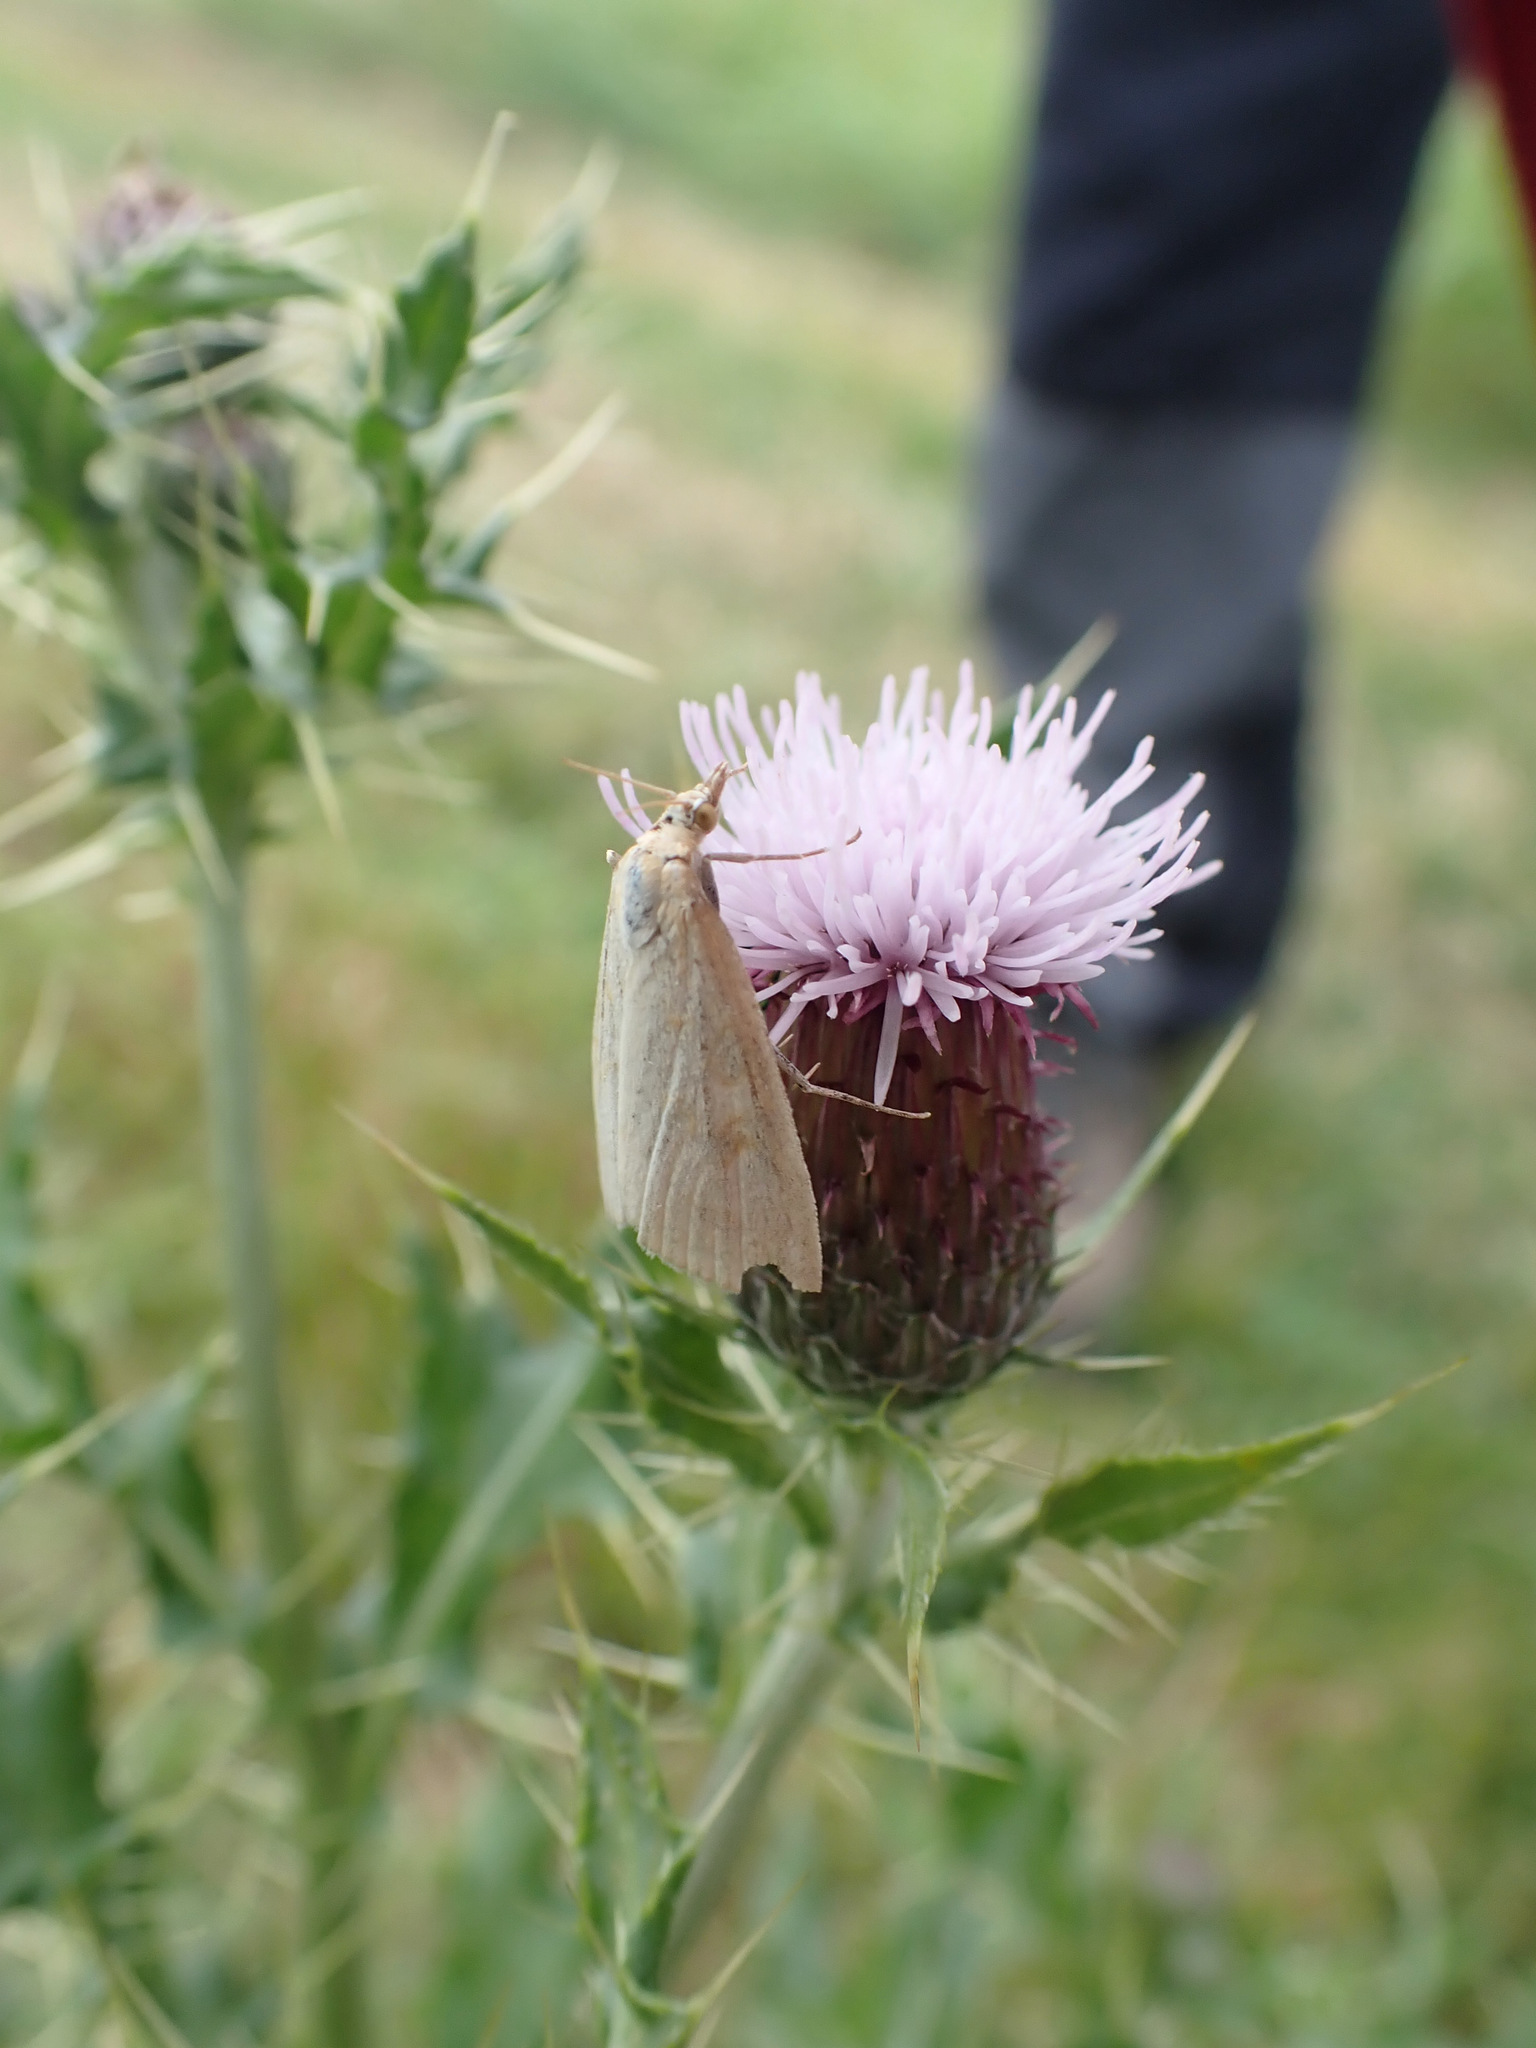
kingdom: Animalia
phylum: Arthropoda
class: Insecta
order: Lepidoptera
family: Crambidae
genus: Udea
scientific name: Udea lutealis
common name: Pale straw pearl
